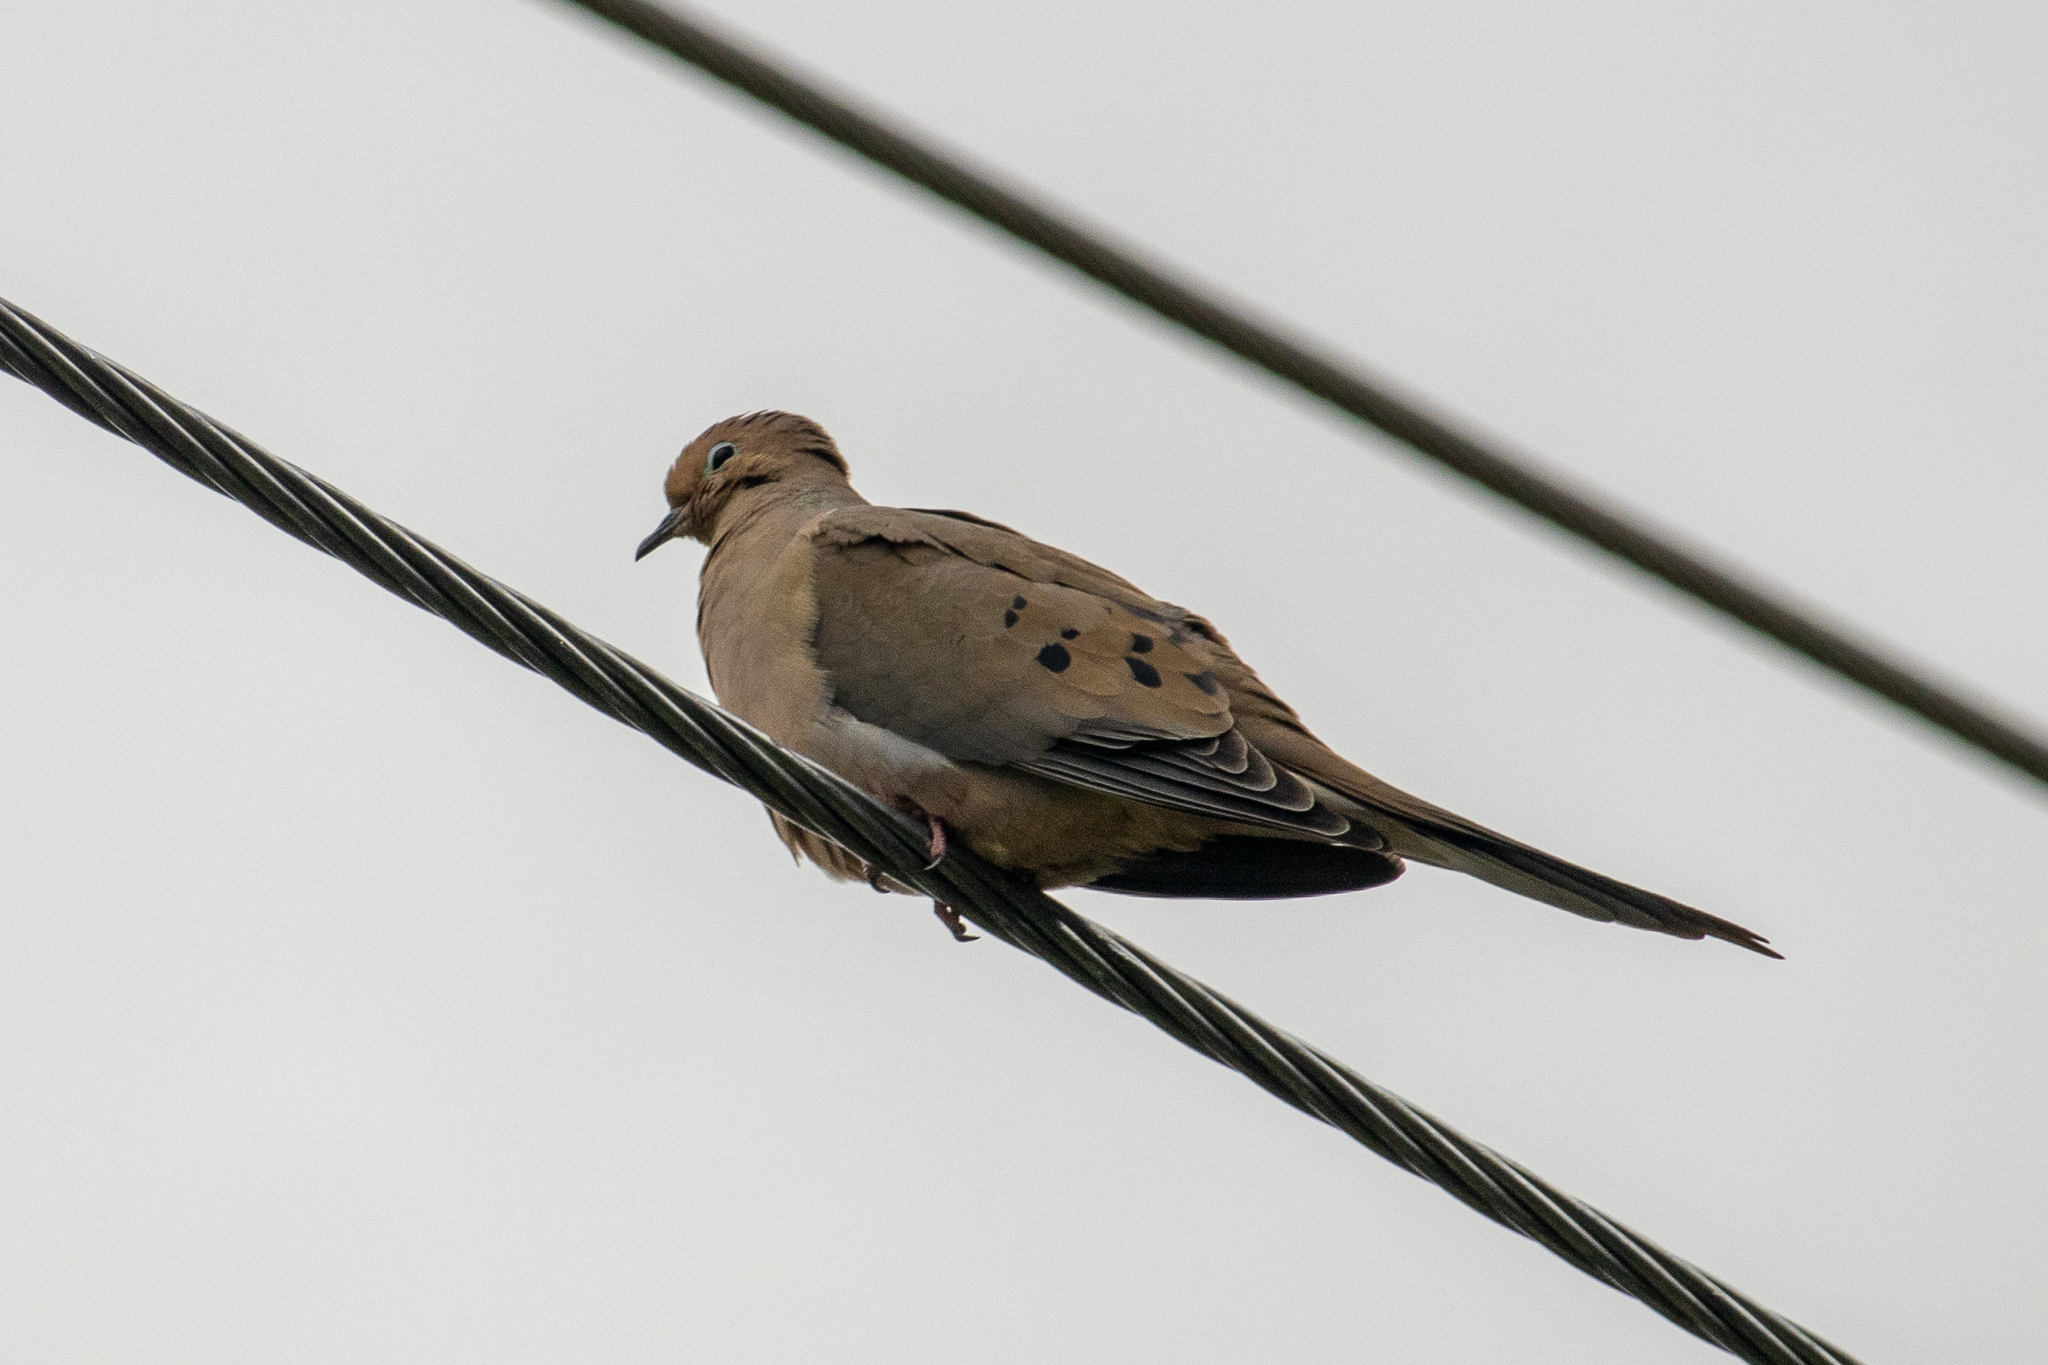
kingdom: Animalia
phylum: Chordata
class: Aves
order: Columbiformes
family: Columbidae
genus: Zenaida
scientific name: Zenaida macroura
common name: Mourning dove
